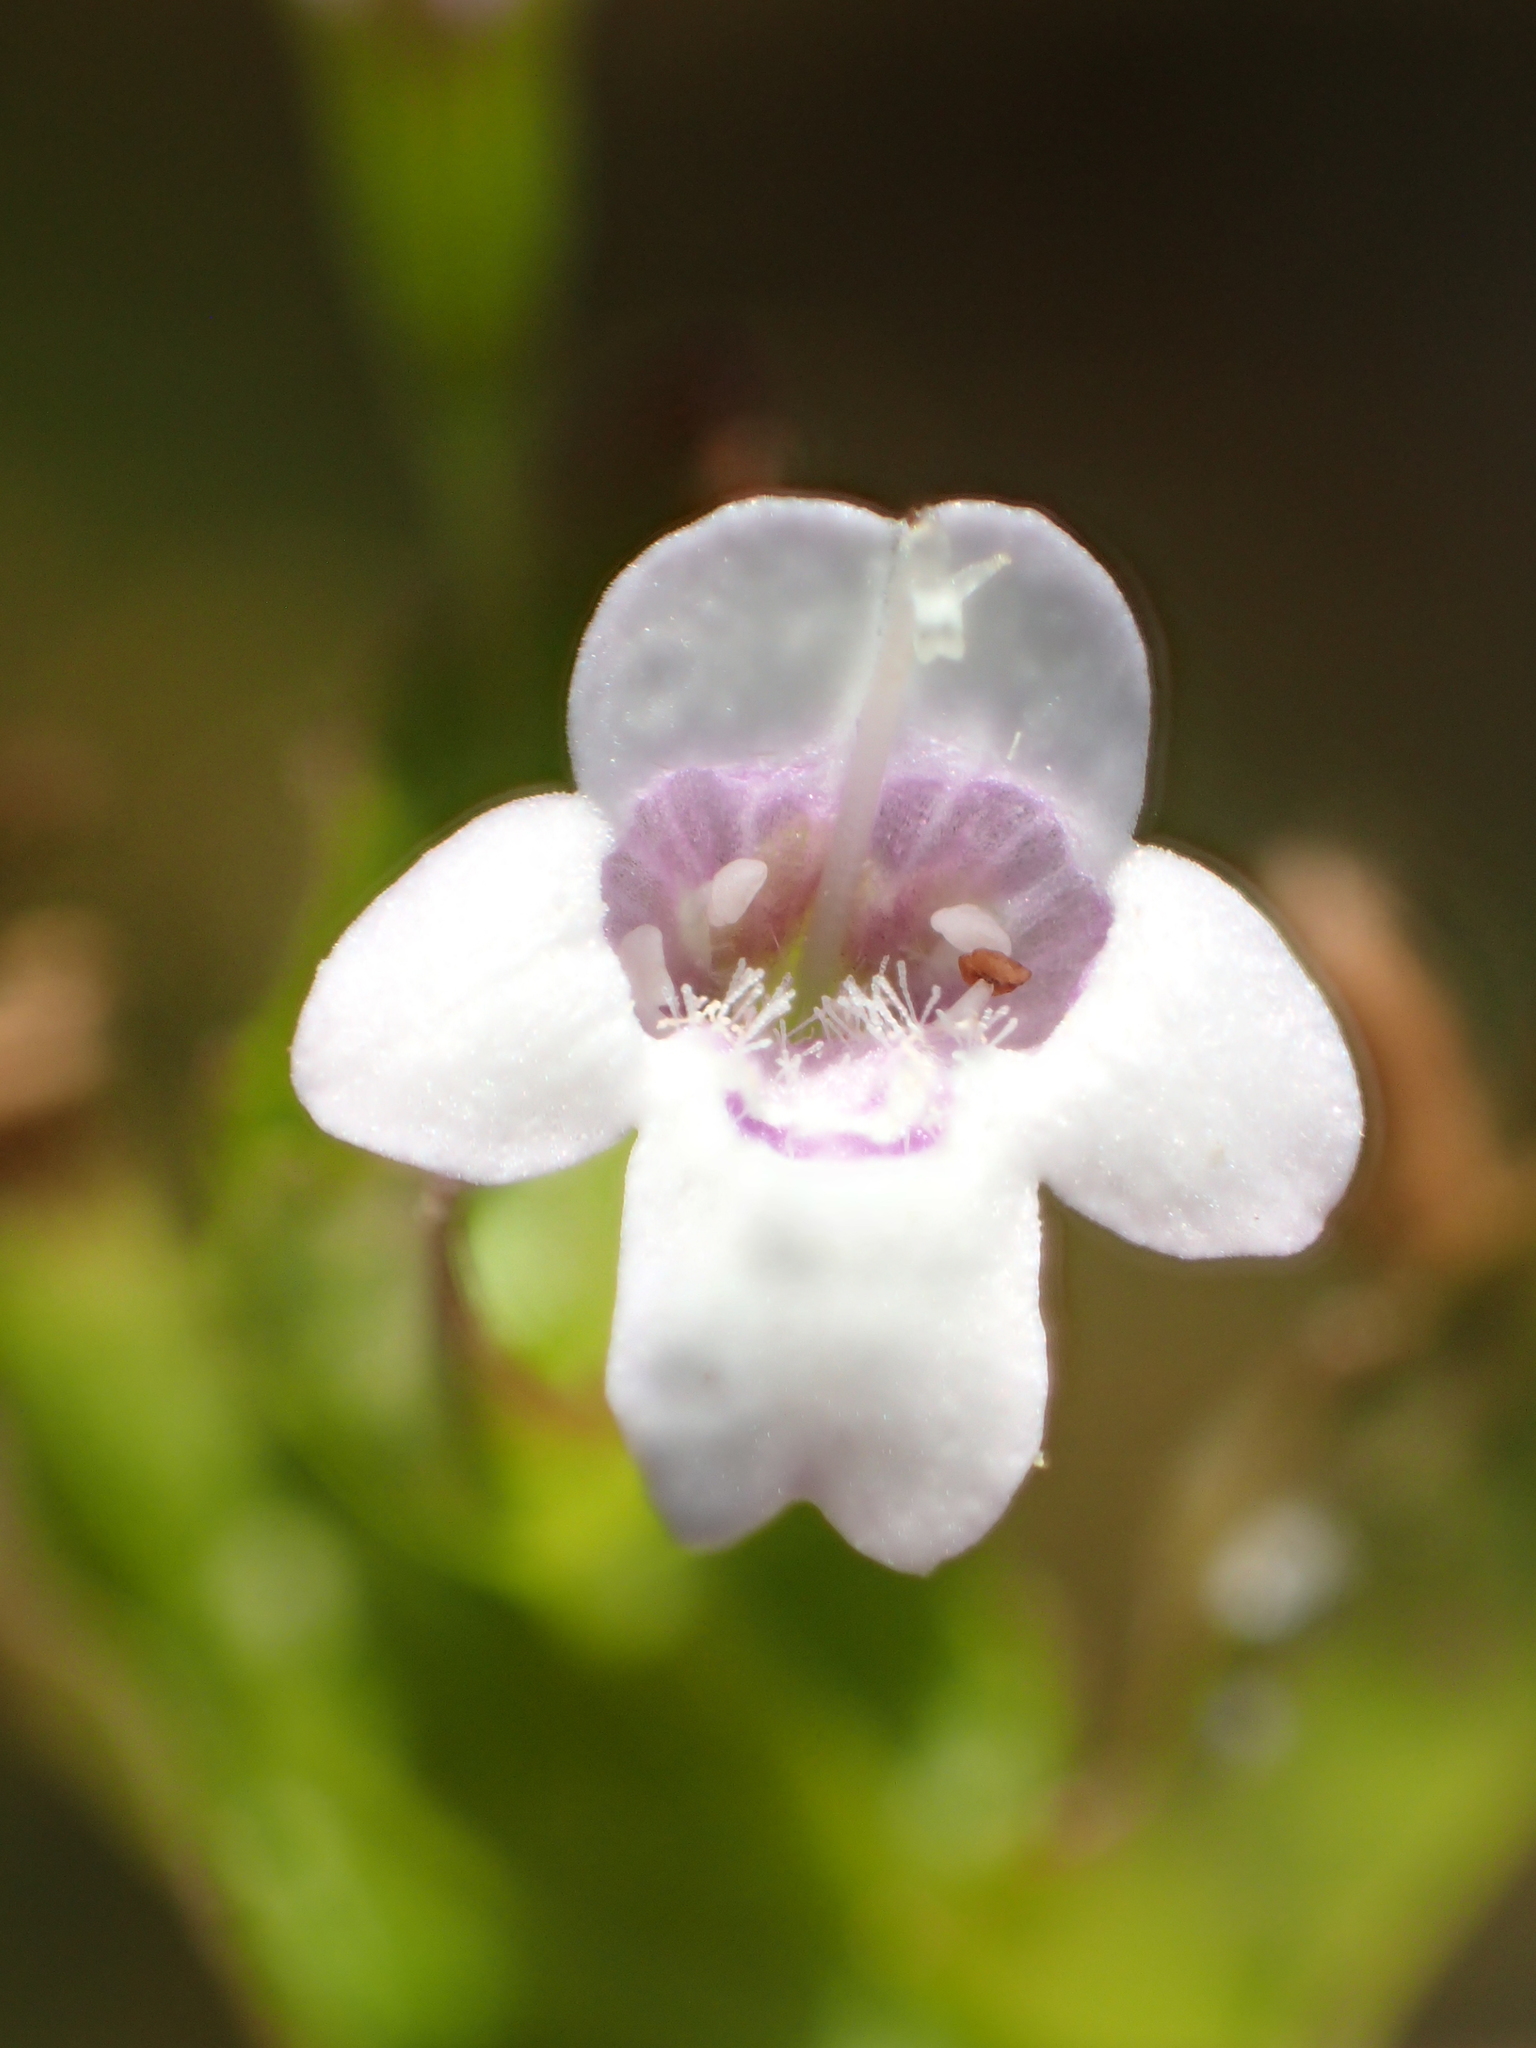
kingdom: Plantae
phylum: Tracheophyta
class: Magnoliopsida
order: Lamiales
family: Lamiaceae
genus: Clinopodium
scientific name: Clinopodium brownei
